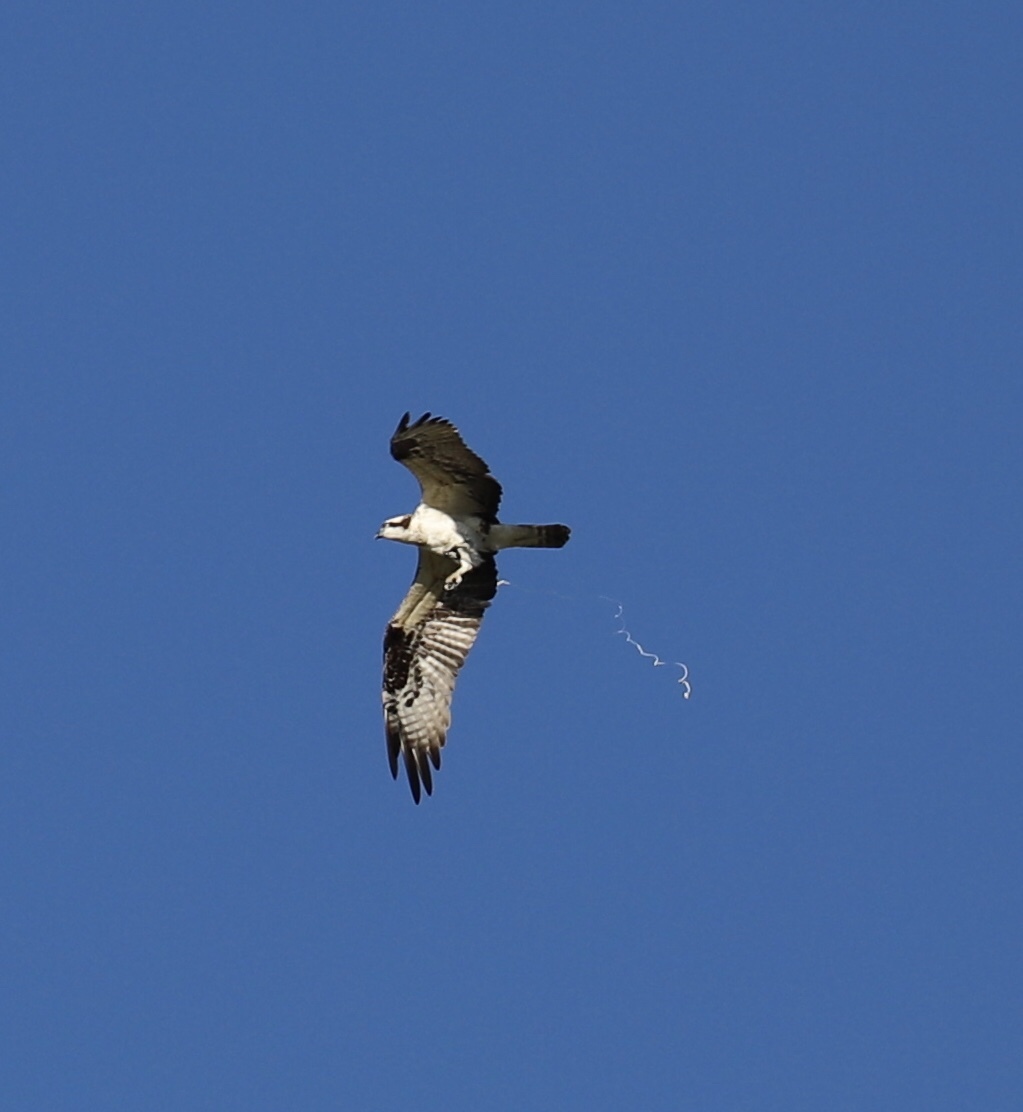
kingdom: Animalia
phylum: Chordata
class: Aves
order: Accipitriformes
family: Pandionidae
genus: Pandion
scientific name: Pandion haliaetus
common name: Osprey
